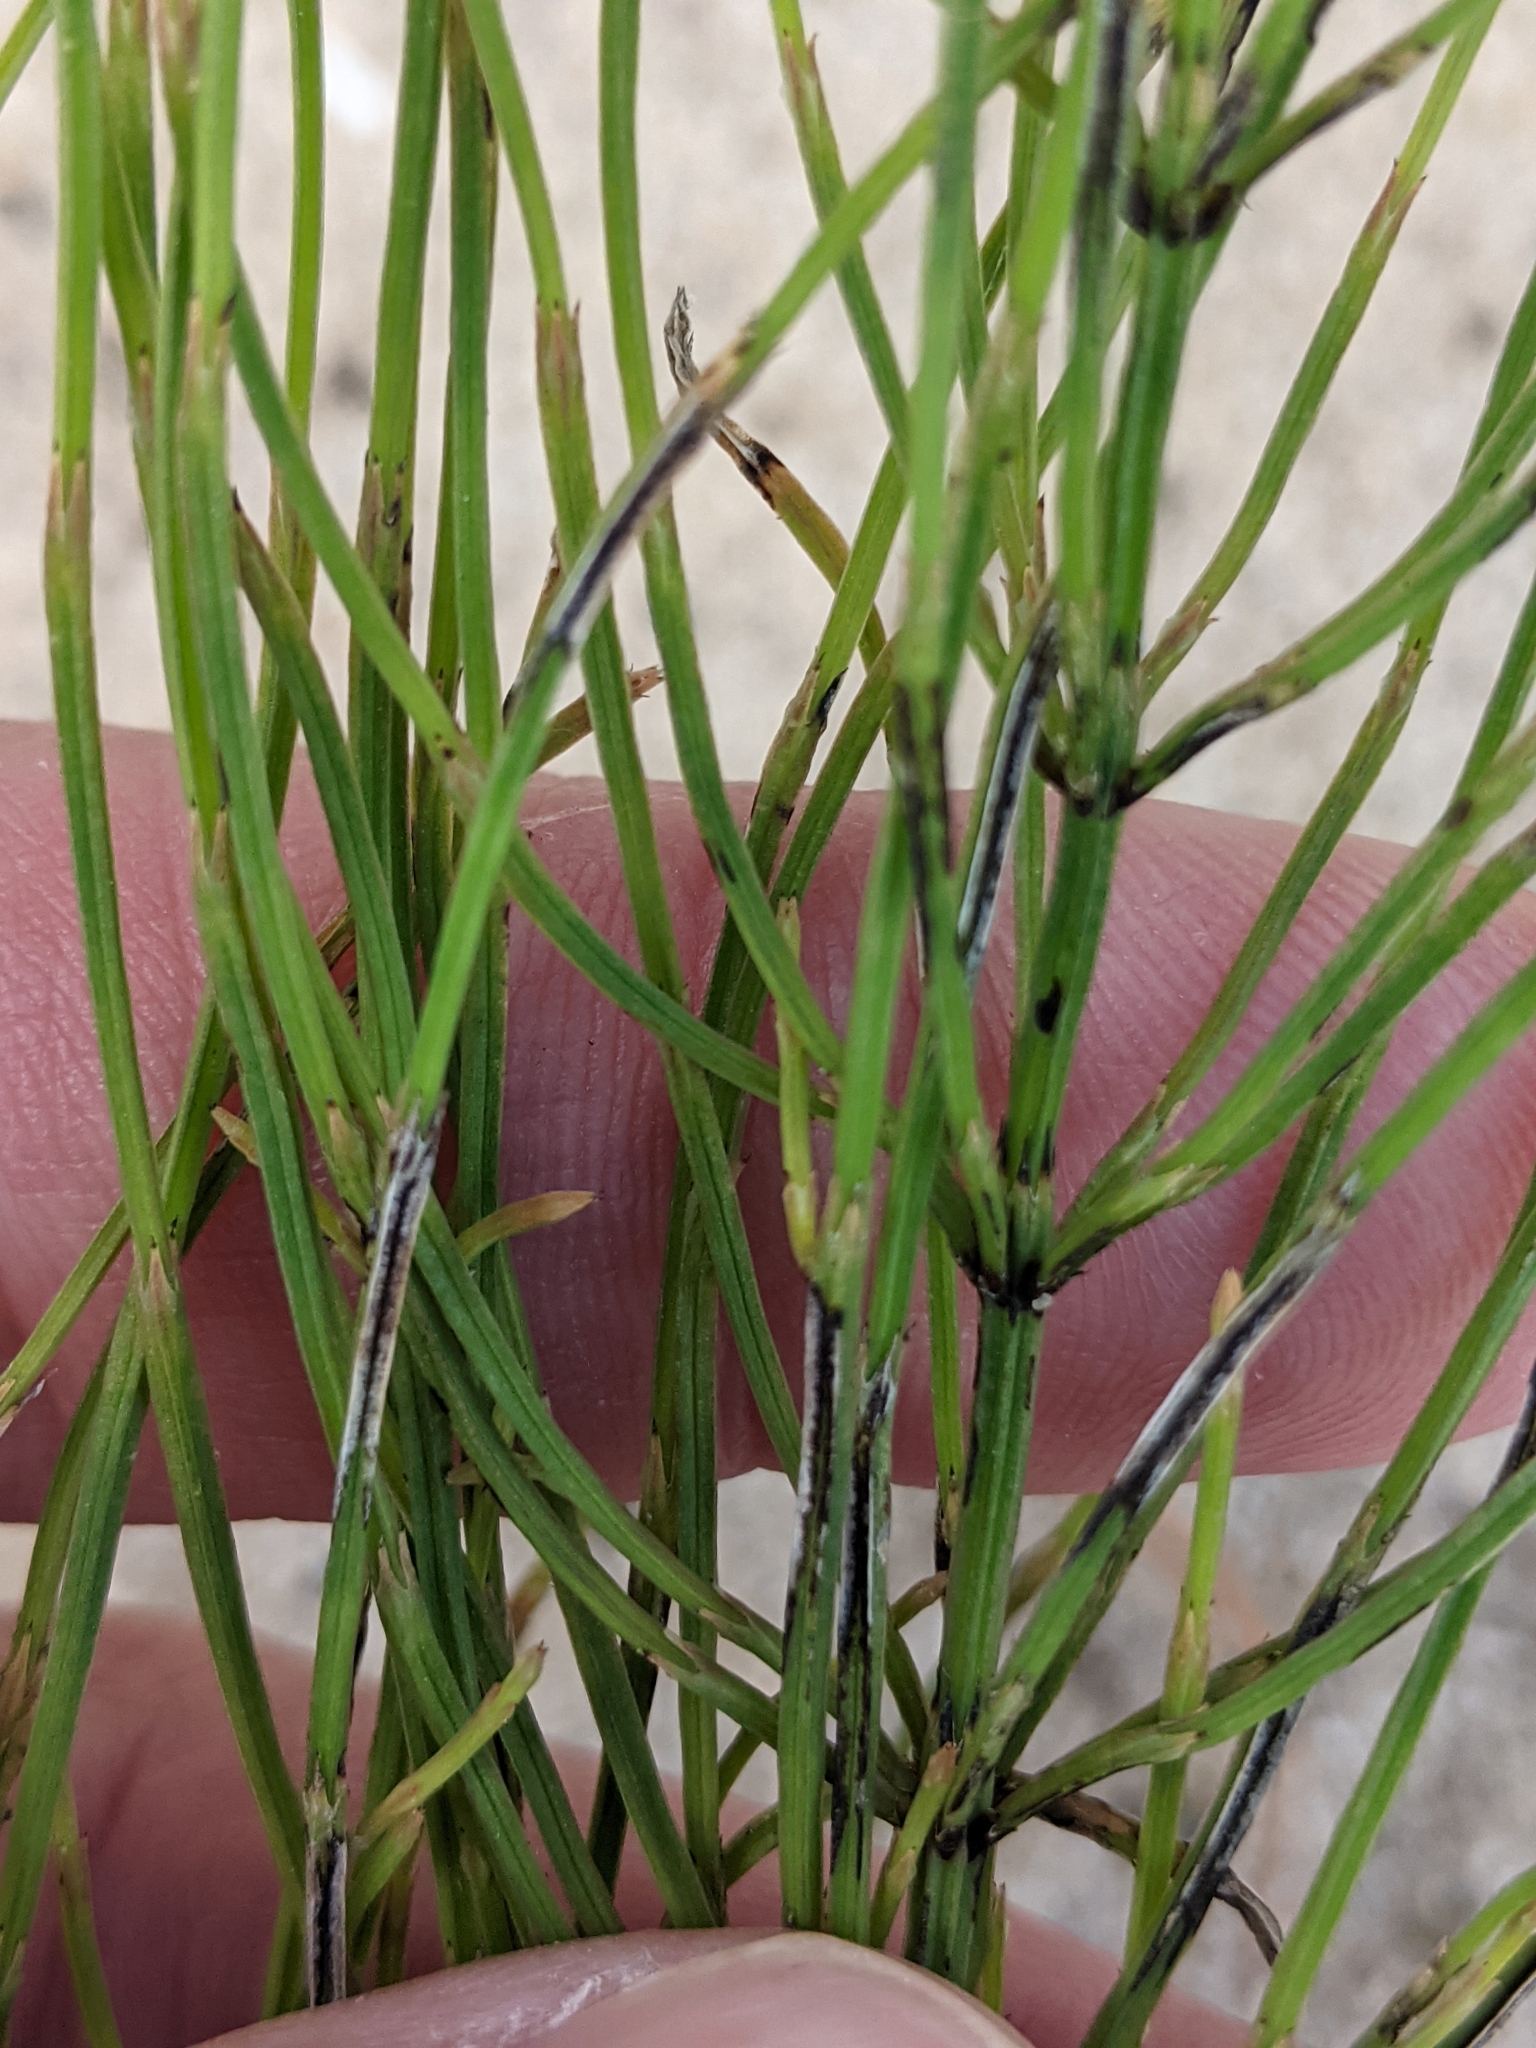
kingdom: Plantae
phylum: Tracheophyta
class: Polypodiopsida
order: Equisetales
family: Equisetaceae
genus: Equisetum
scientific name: Equisetum arvense
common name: Field horsetail
